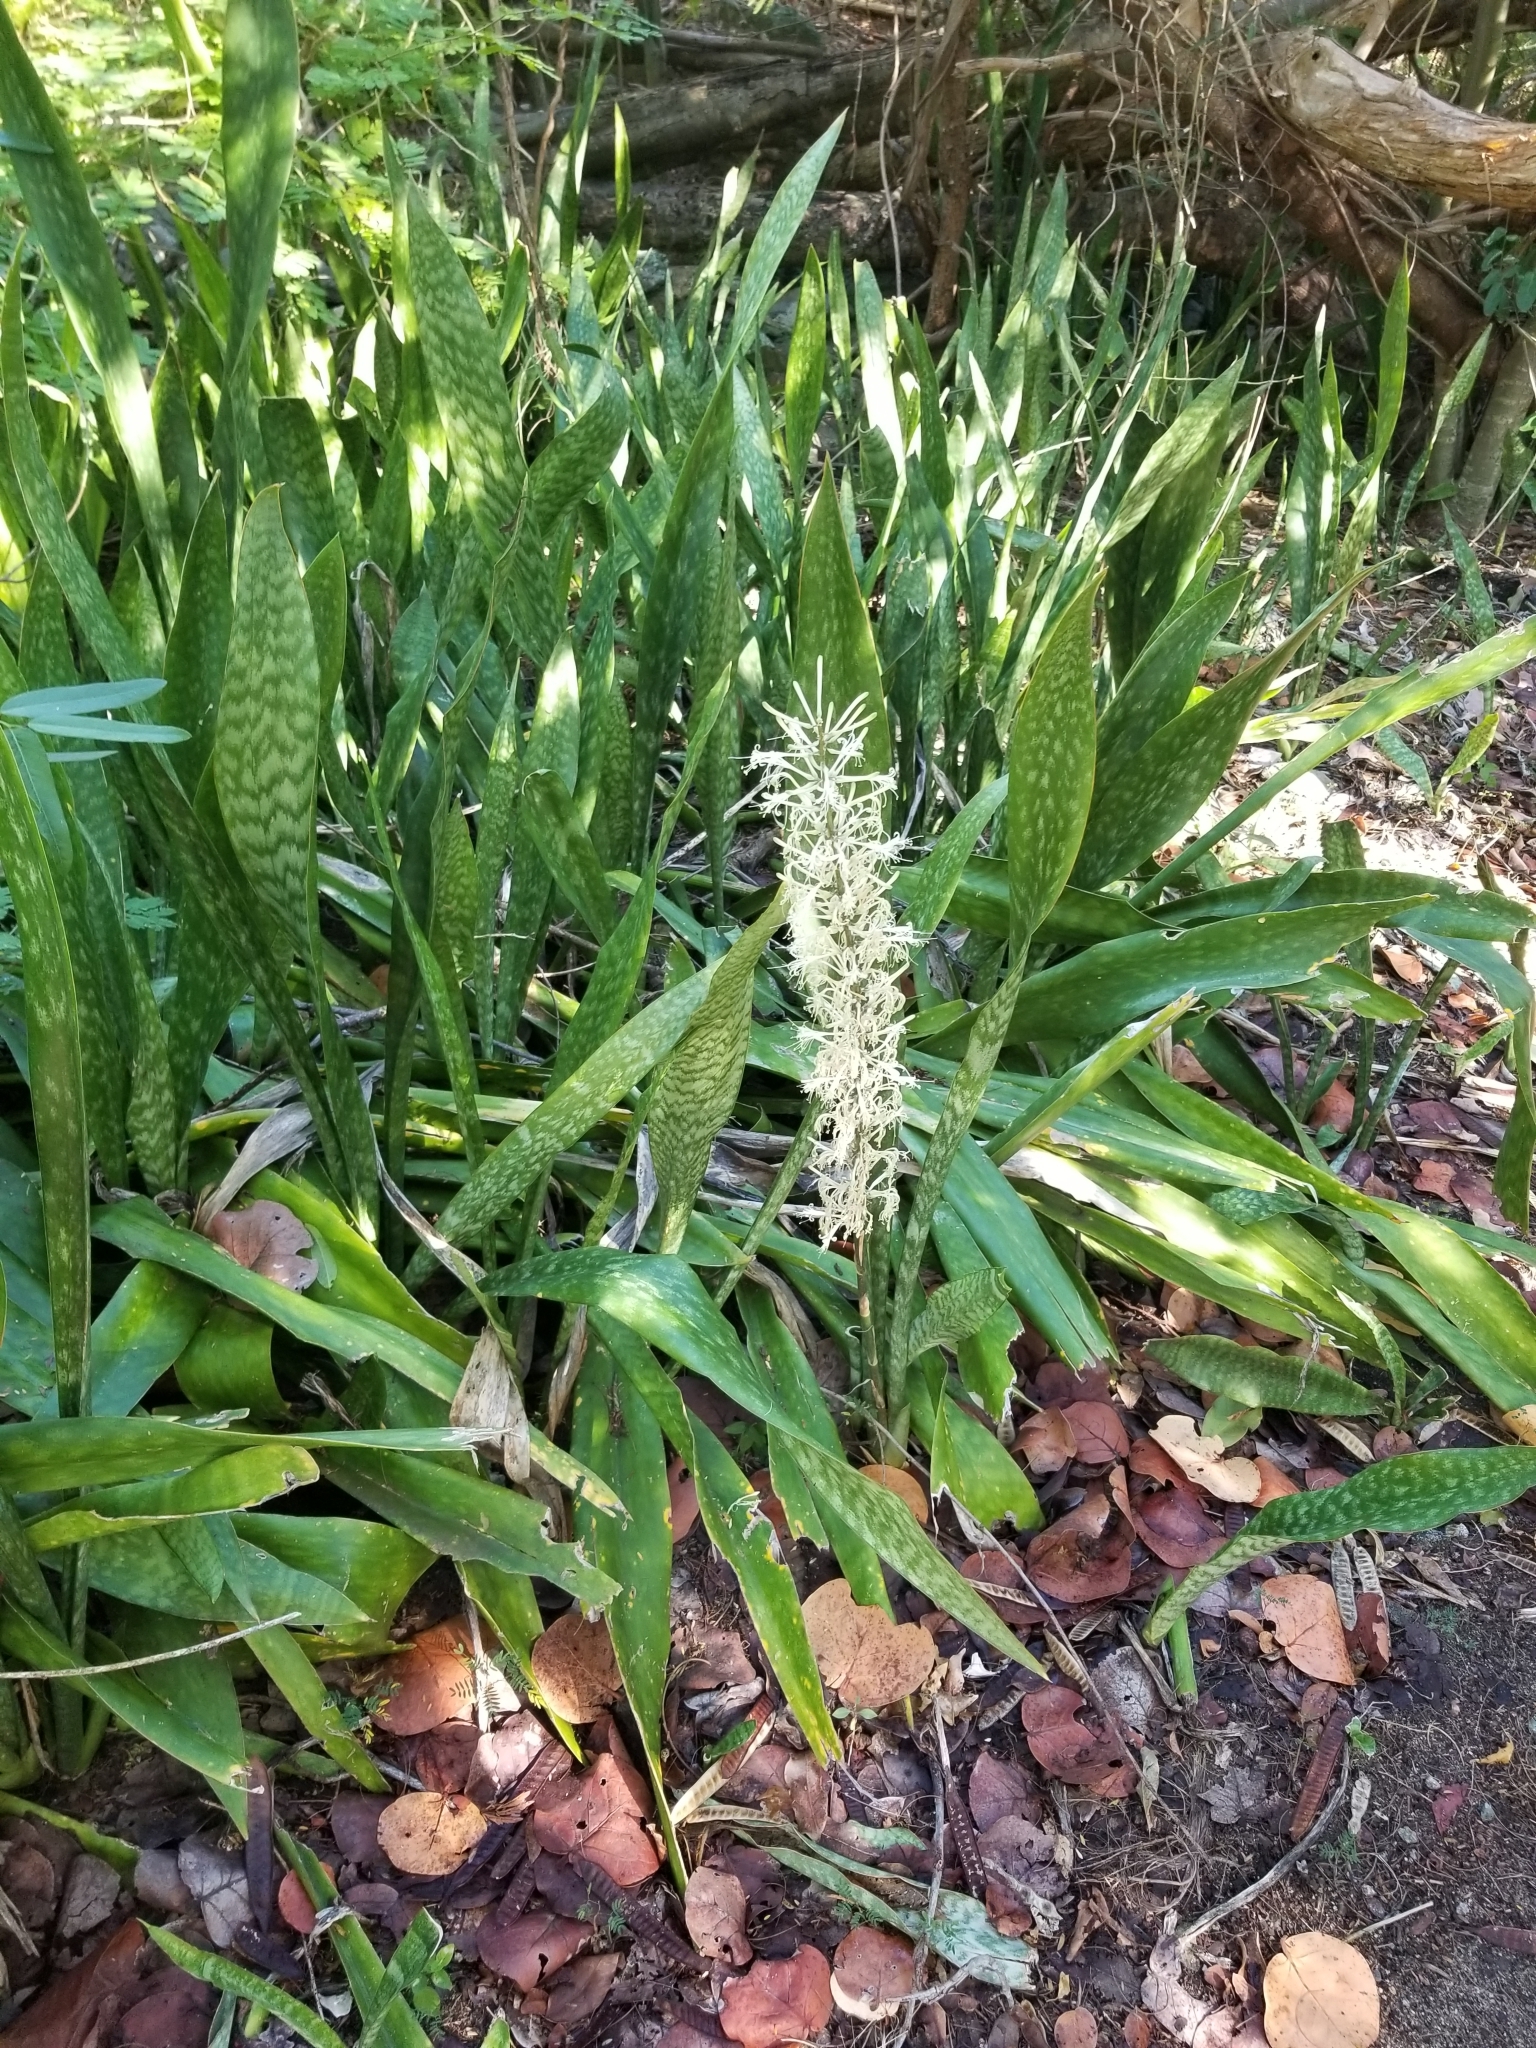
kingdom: Plantae
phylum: Tracheophyta
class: Liliopsida
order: Asparagales
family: Asparagaceae
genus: Dracaena
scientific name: Dracaena hyacinthoides
